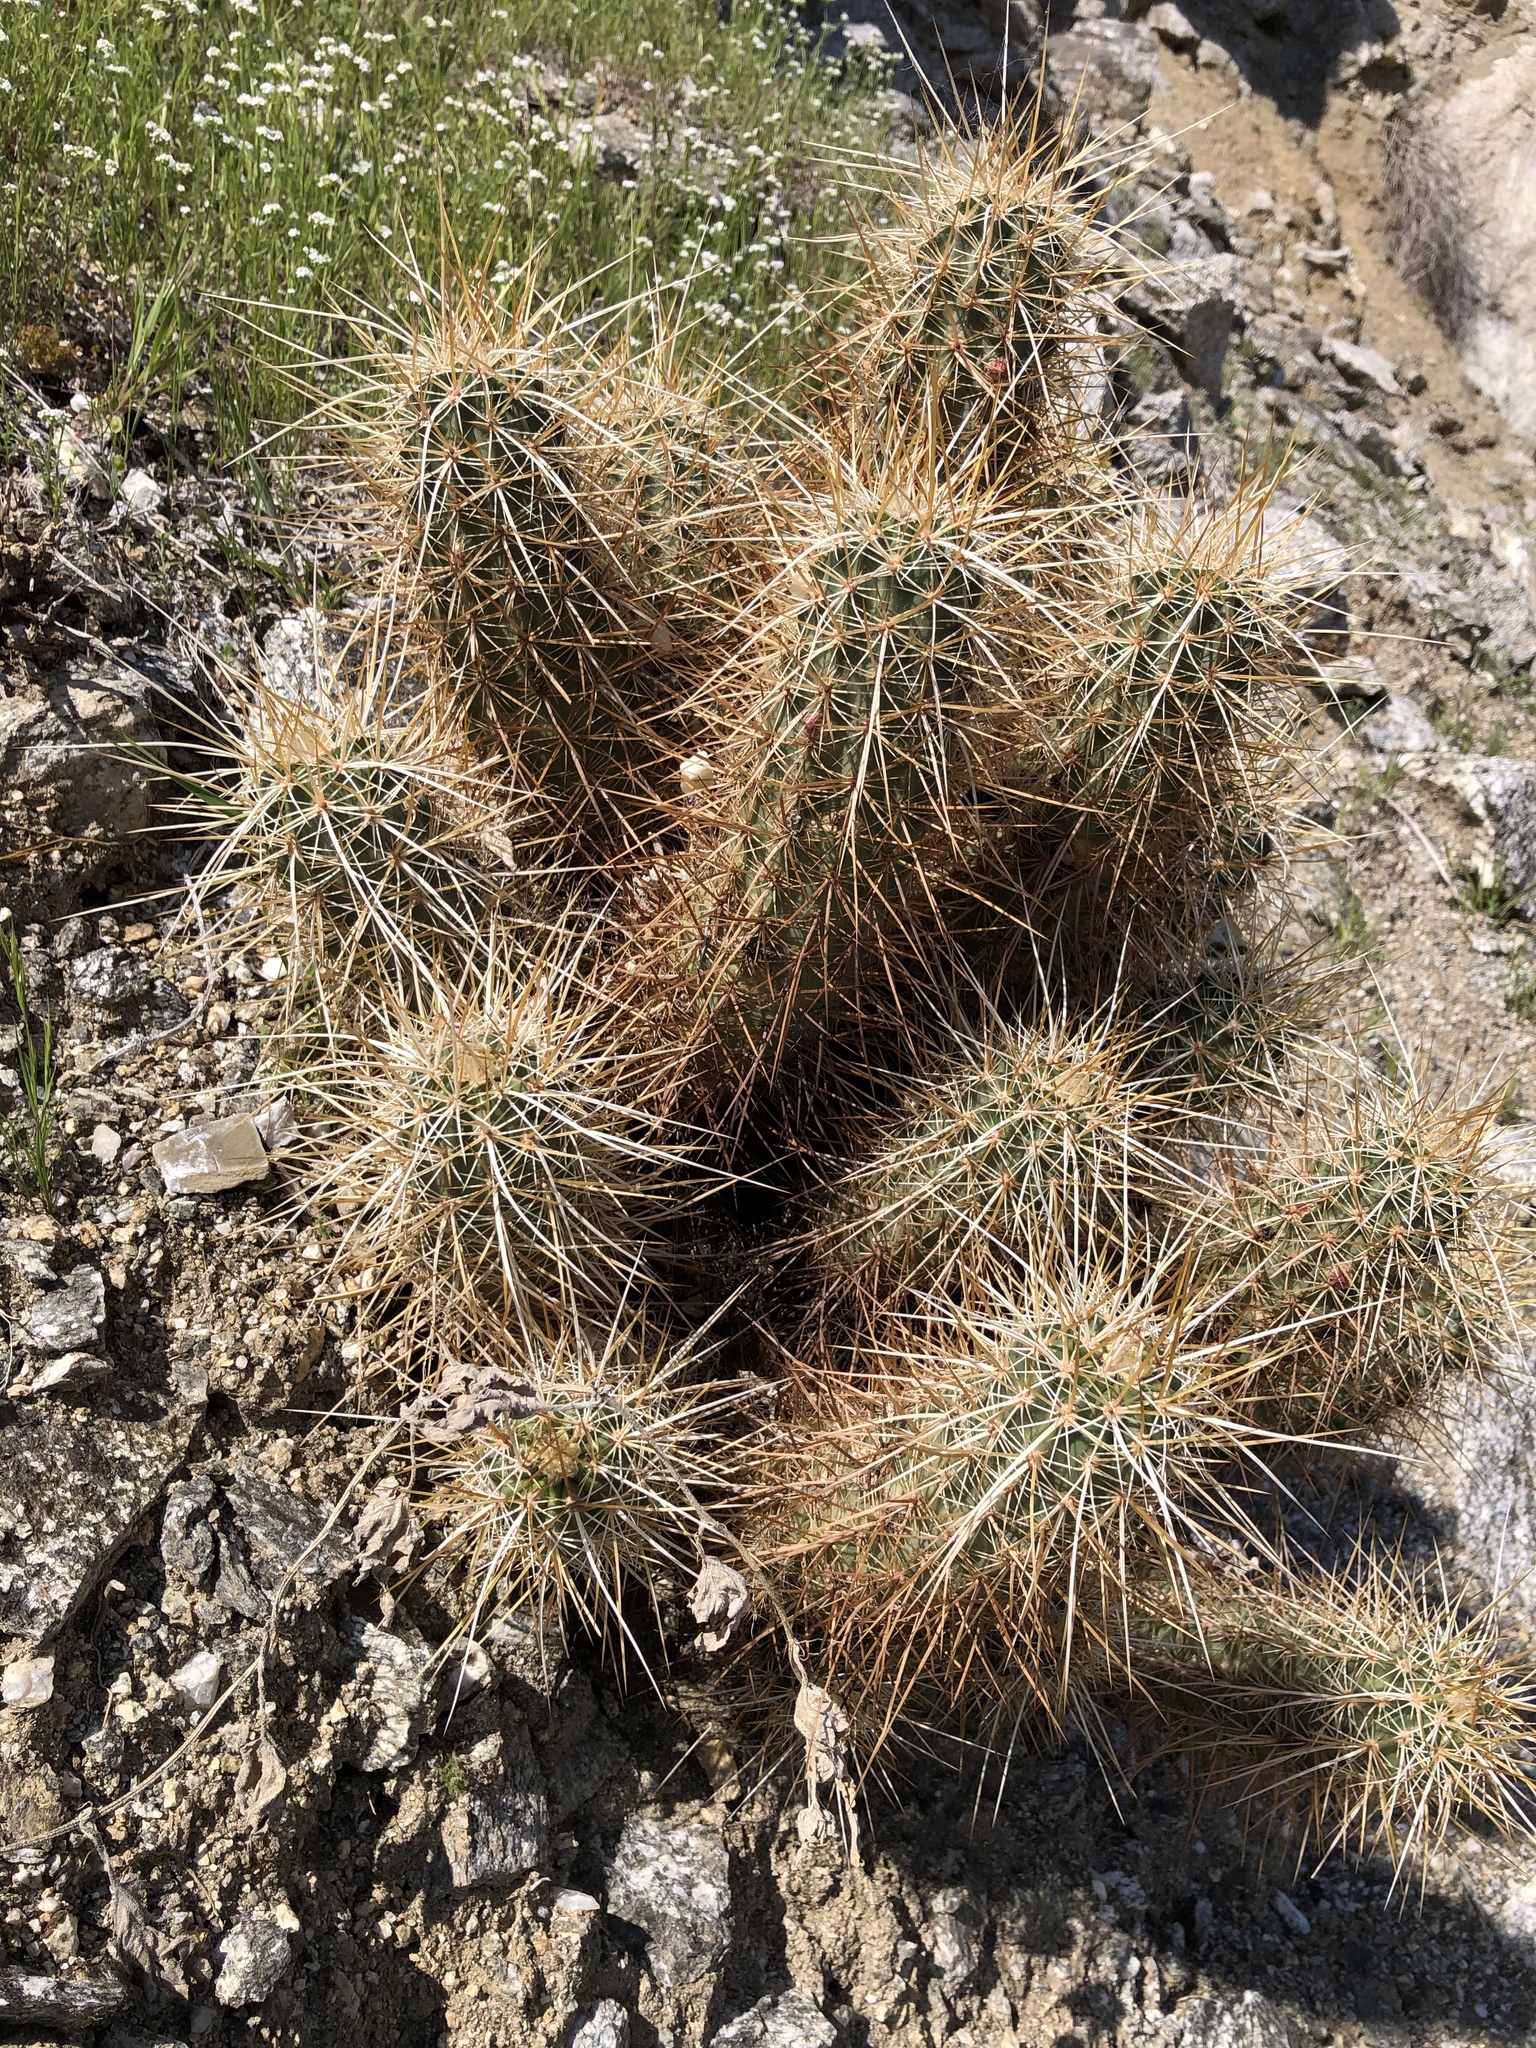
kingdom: Plantae
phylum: Tracheophyta
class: Magnoliopsida
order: Caryophyllales
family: Cactaceae
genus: Echinocereus
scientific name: Echinocereus engelmannii
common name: Engelmann's hedgehog cactus
